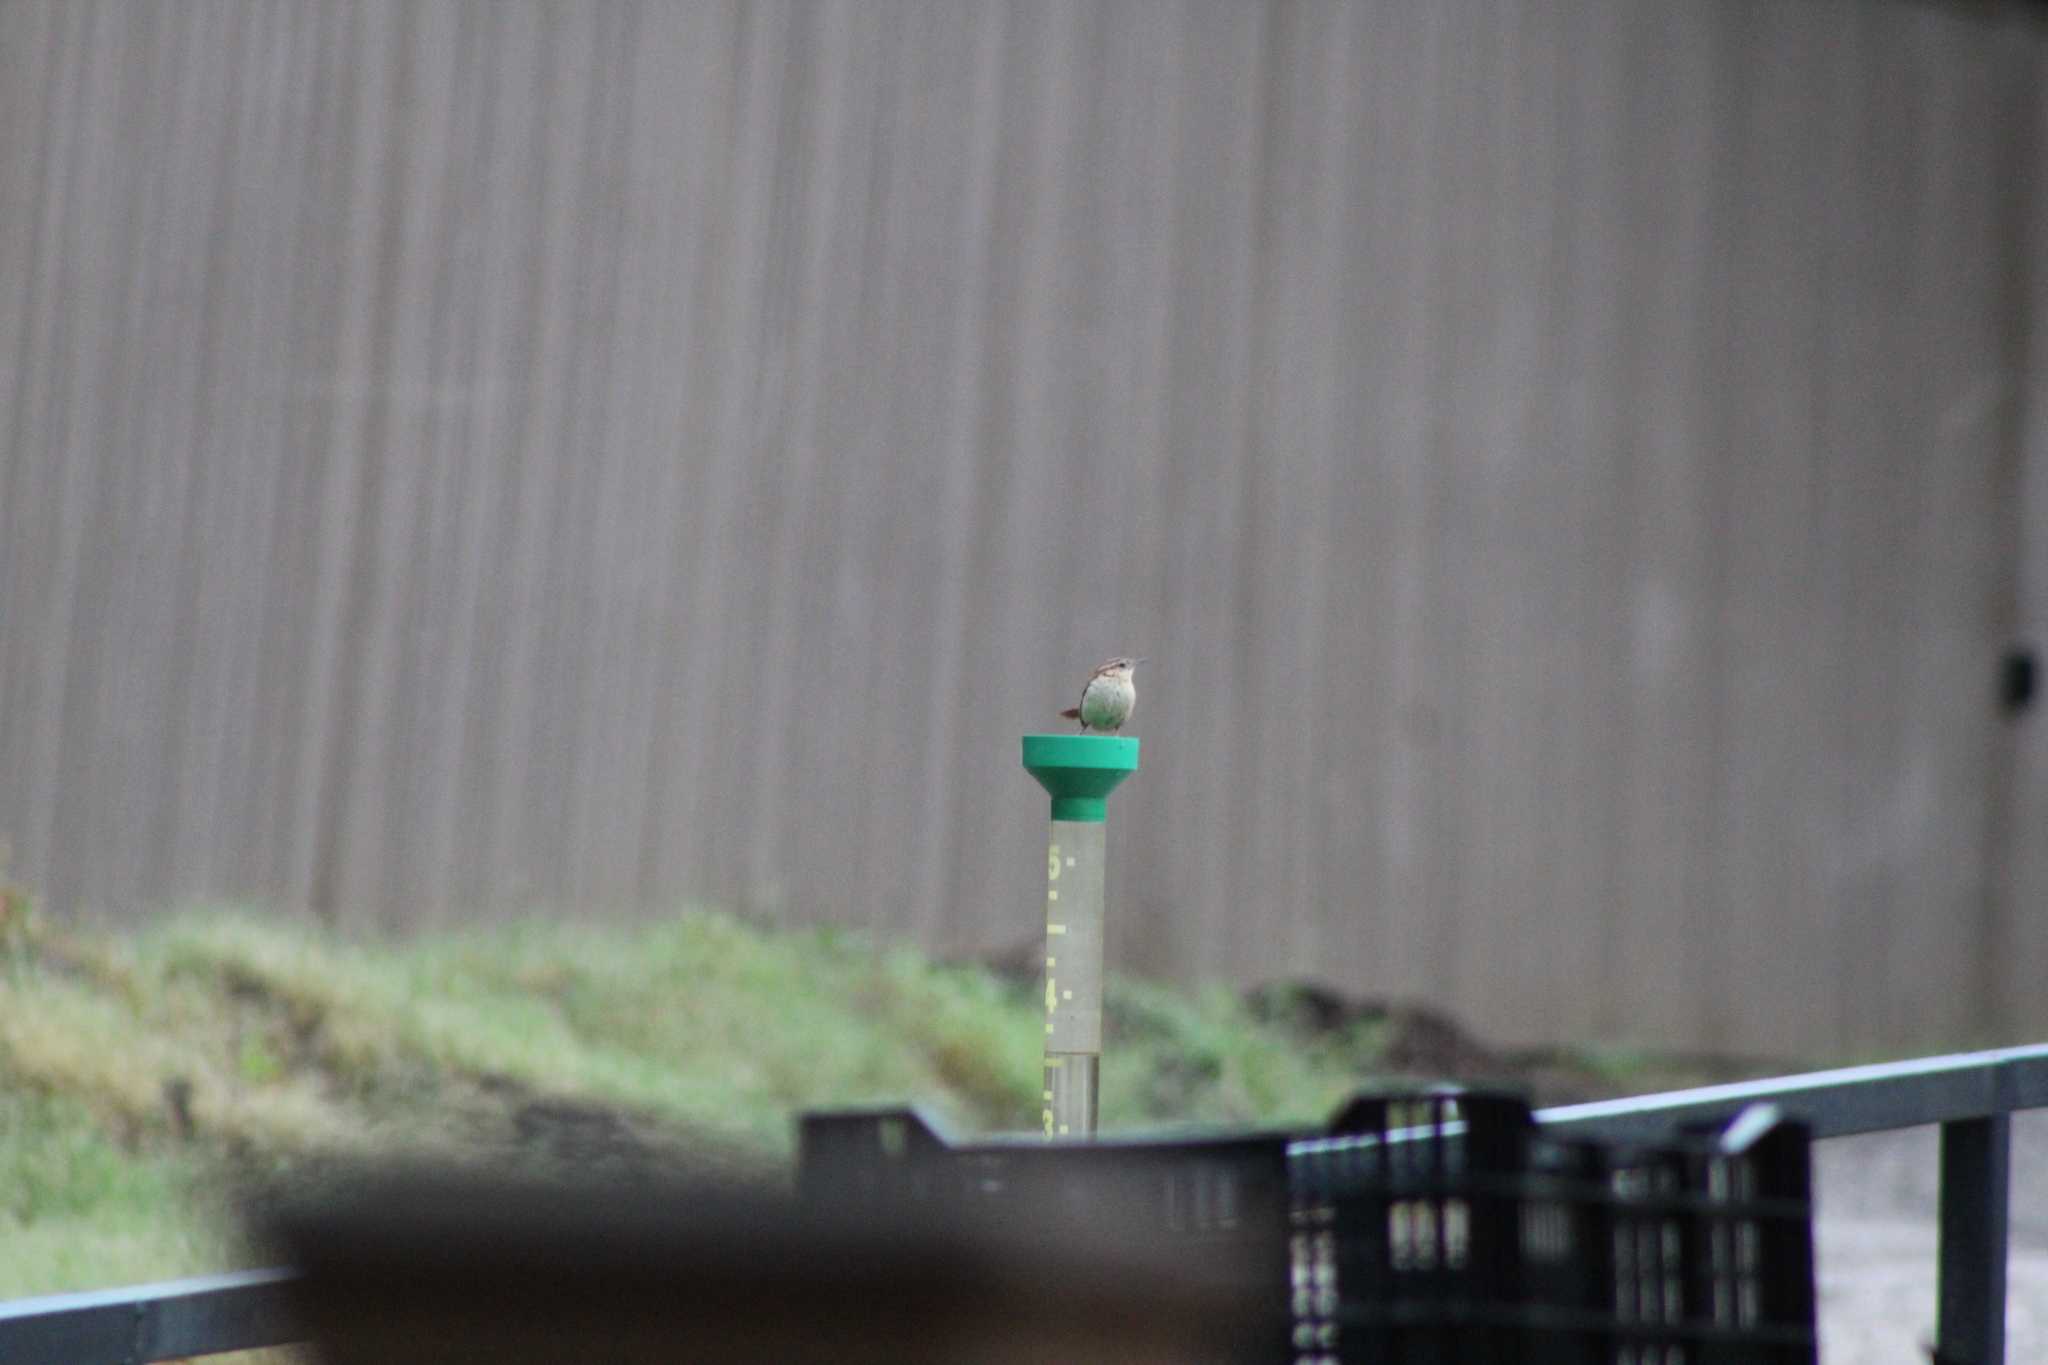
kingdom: Animalia
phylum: Chordata
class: Aves
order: Passeriformes
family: Troglodytidae
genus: Thryothorus
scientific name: Thryothorus ludovicianus
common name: Carolina wren
